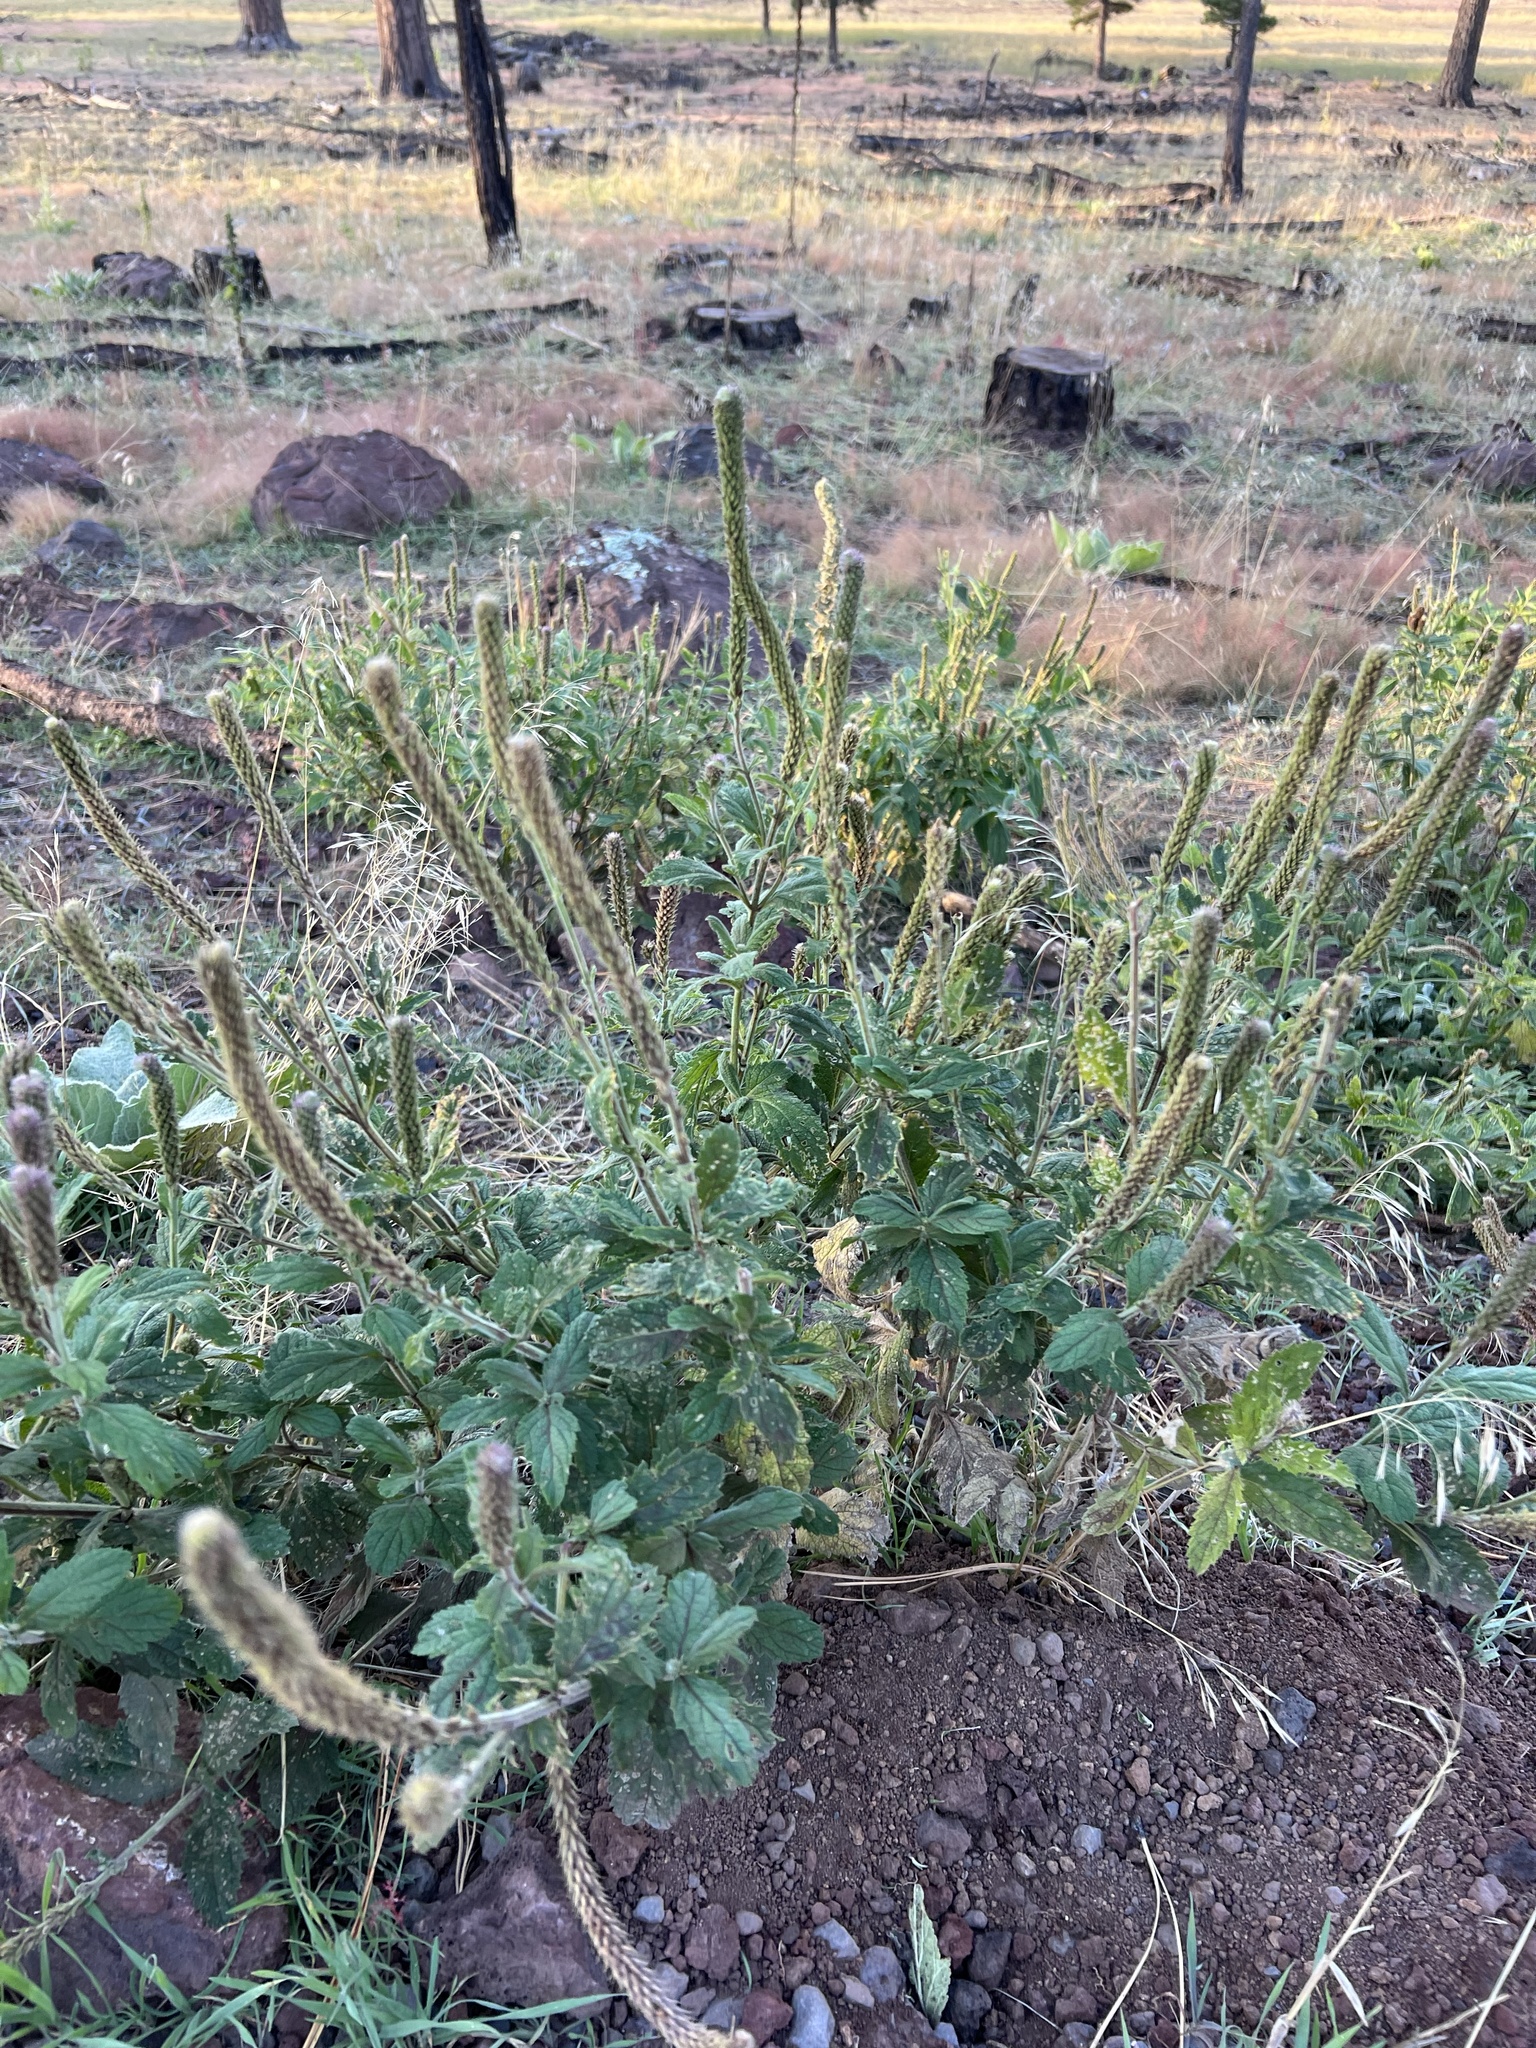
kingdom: Plantae
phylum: Tracheophyta
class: Magnoliopsida
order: Lamiales
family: Verbenaceae
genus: Verbena
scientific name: Verbena macdougalii
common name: New mexico vervain
